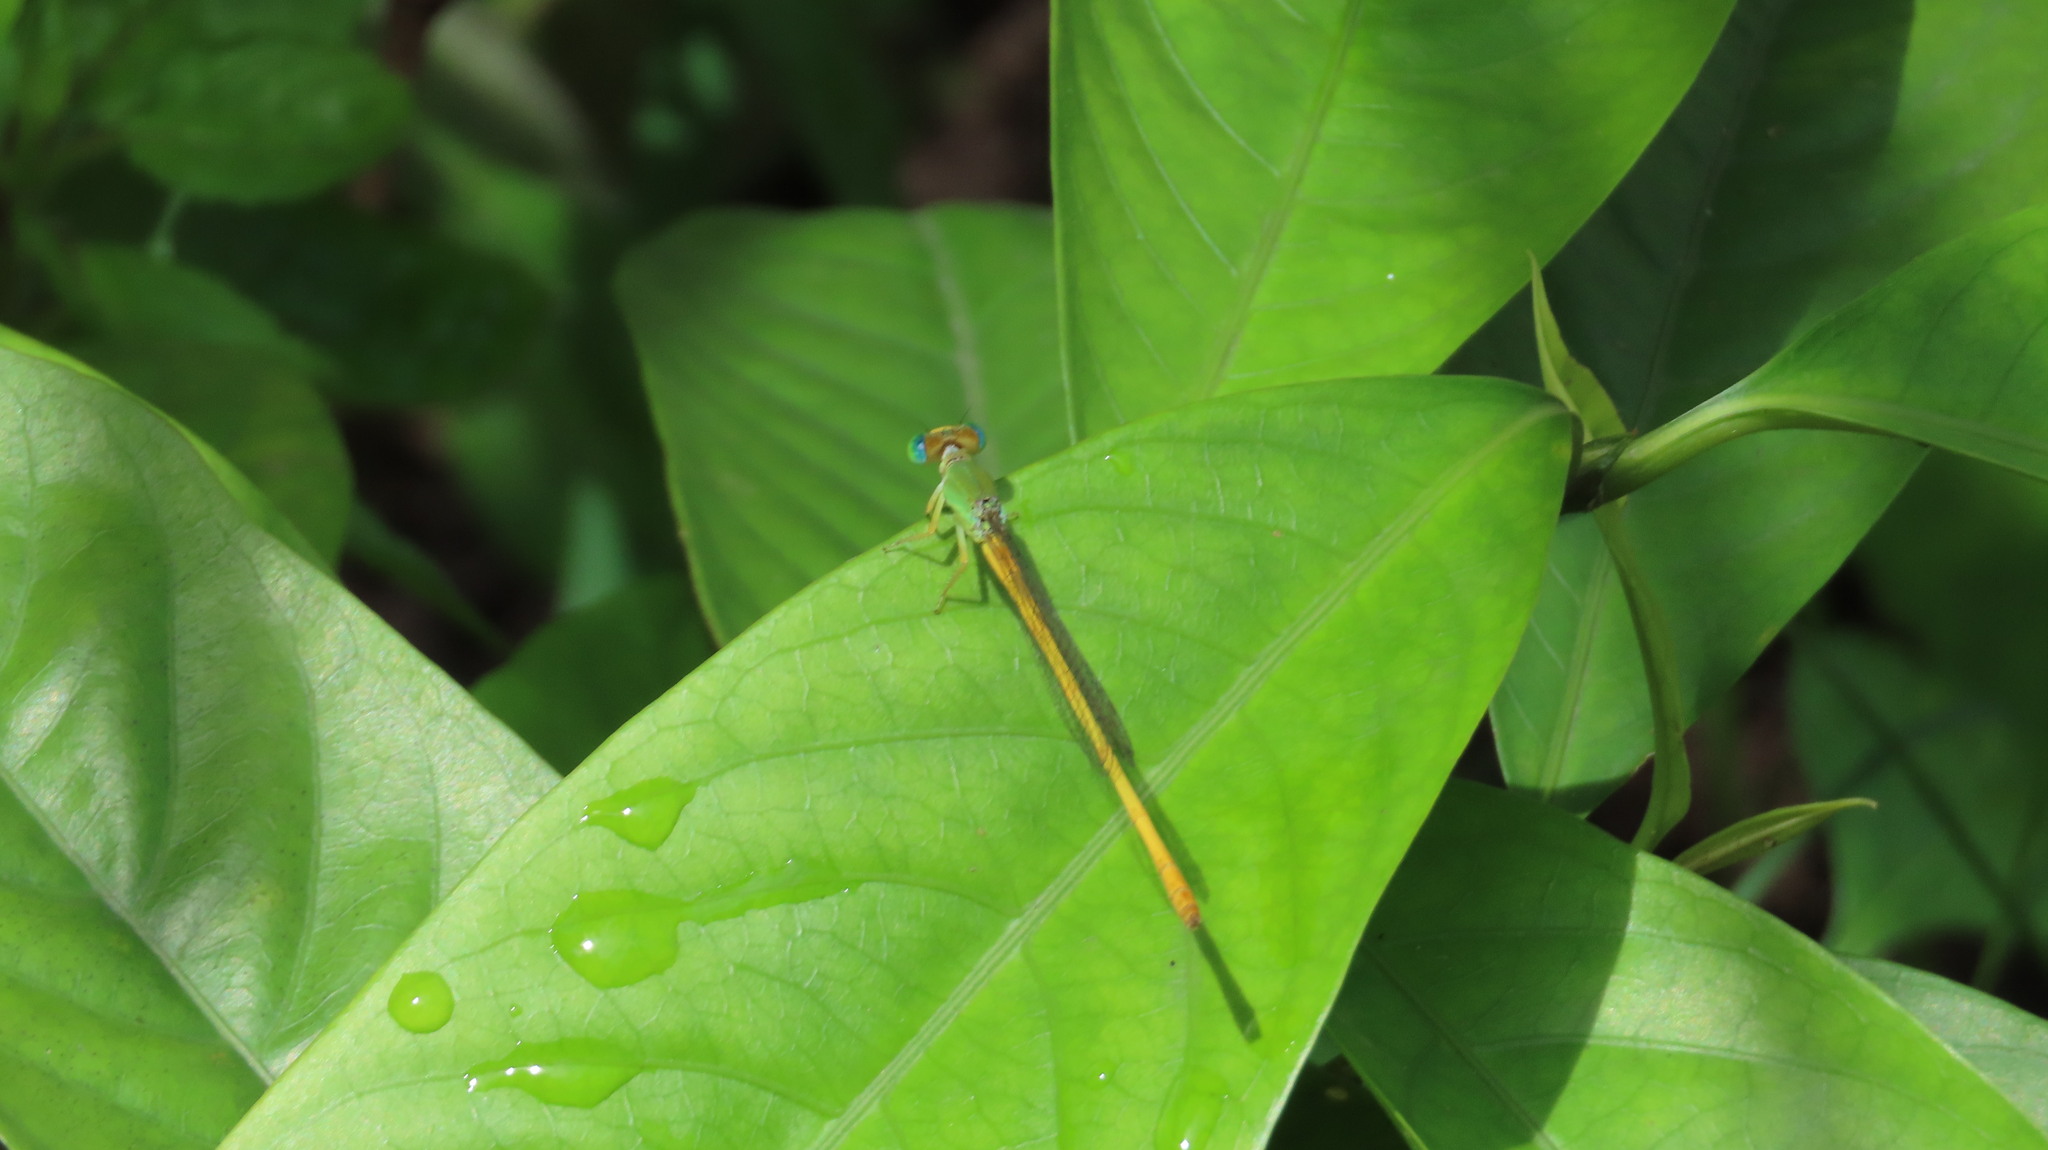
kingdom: Animalia
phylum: Arthropoda
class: Insecta
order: Odonata
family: Coenagrionidae
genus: Ceriagrion
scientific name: Ceriagrion coromandelianum
